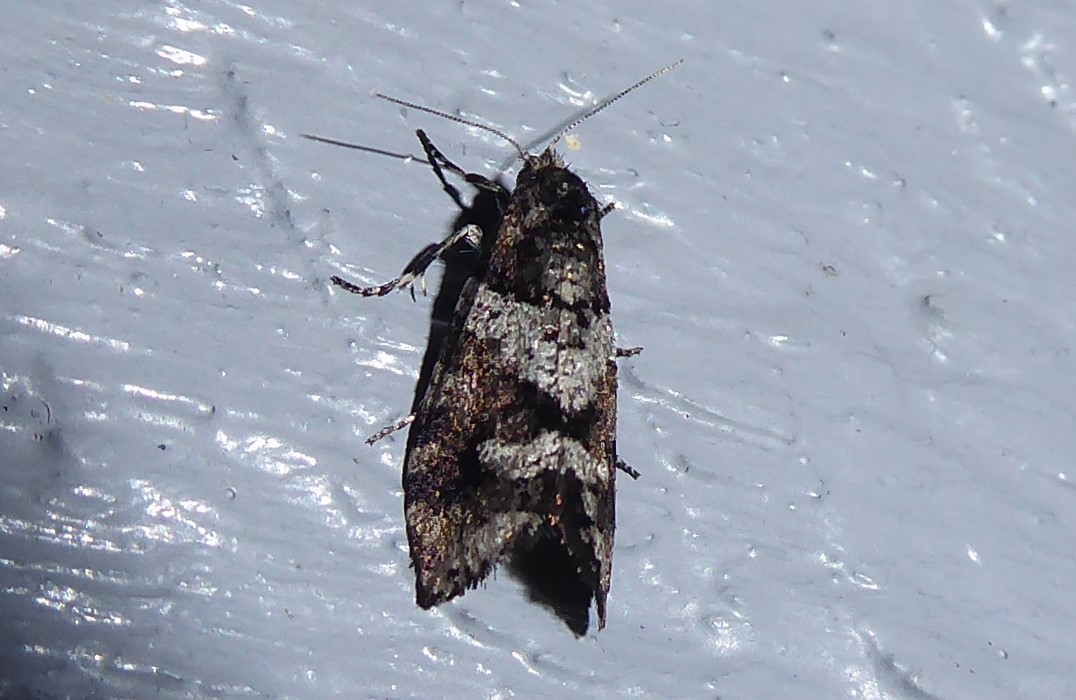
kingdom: Animalia
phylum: Arthropoda
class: Insecta
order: Lepidoptera
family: Psychidae
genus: Lepidoscia
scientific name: Lepidoscia heliochares
